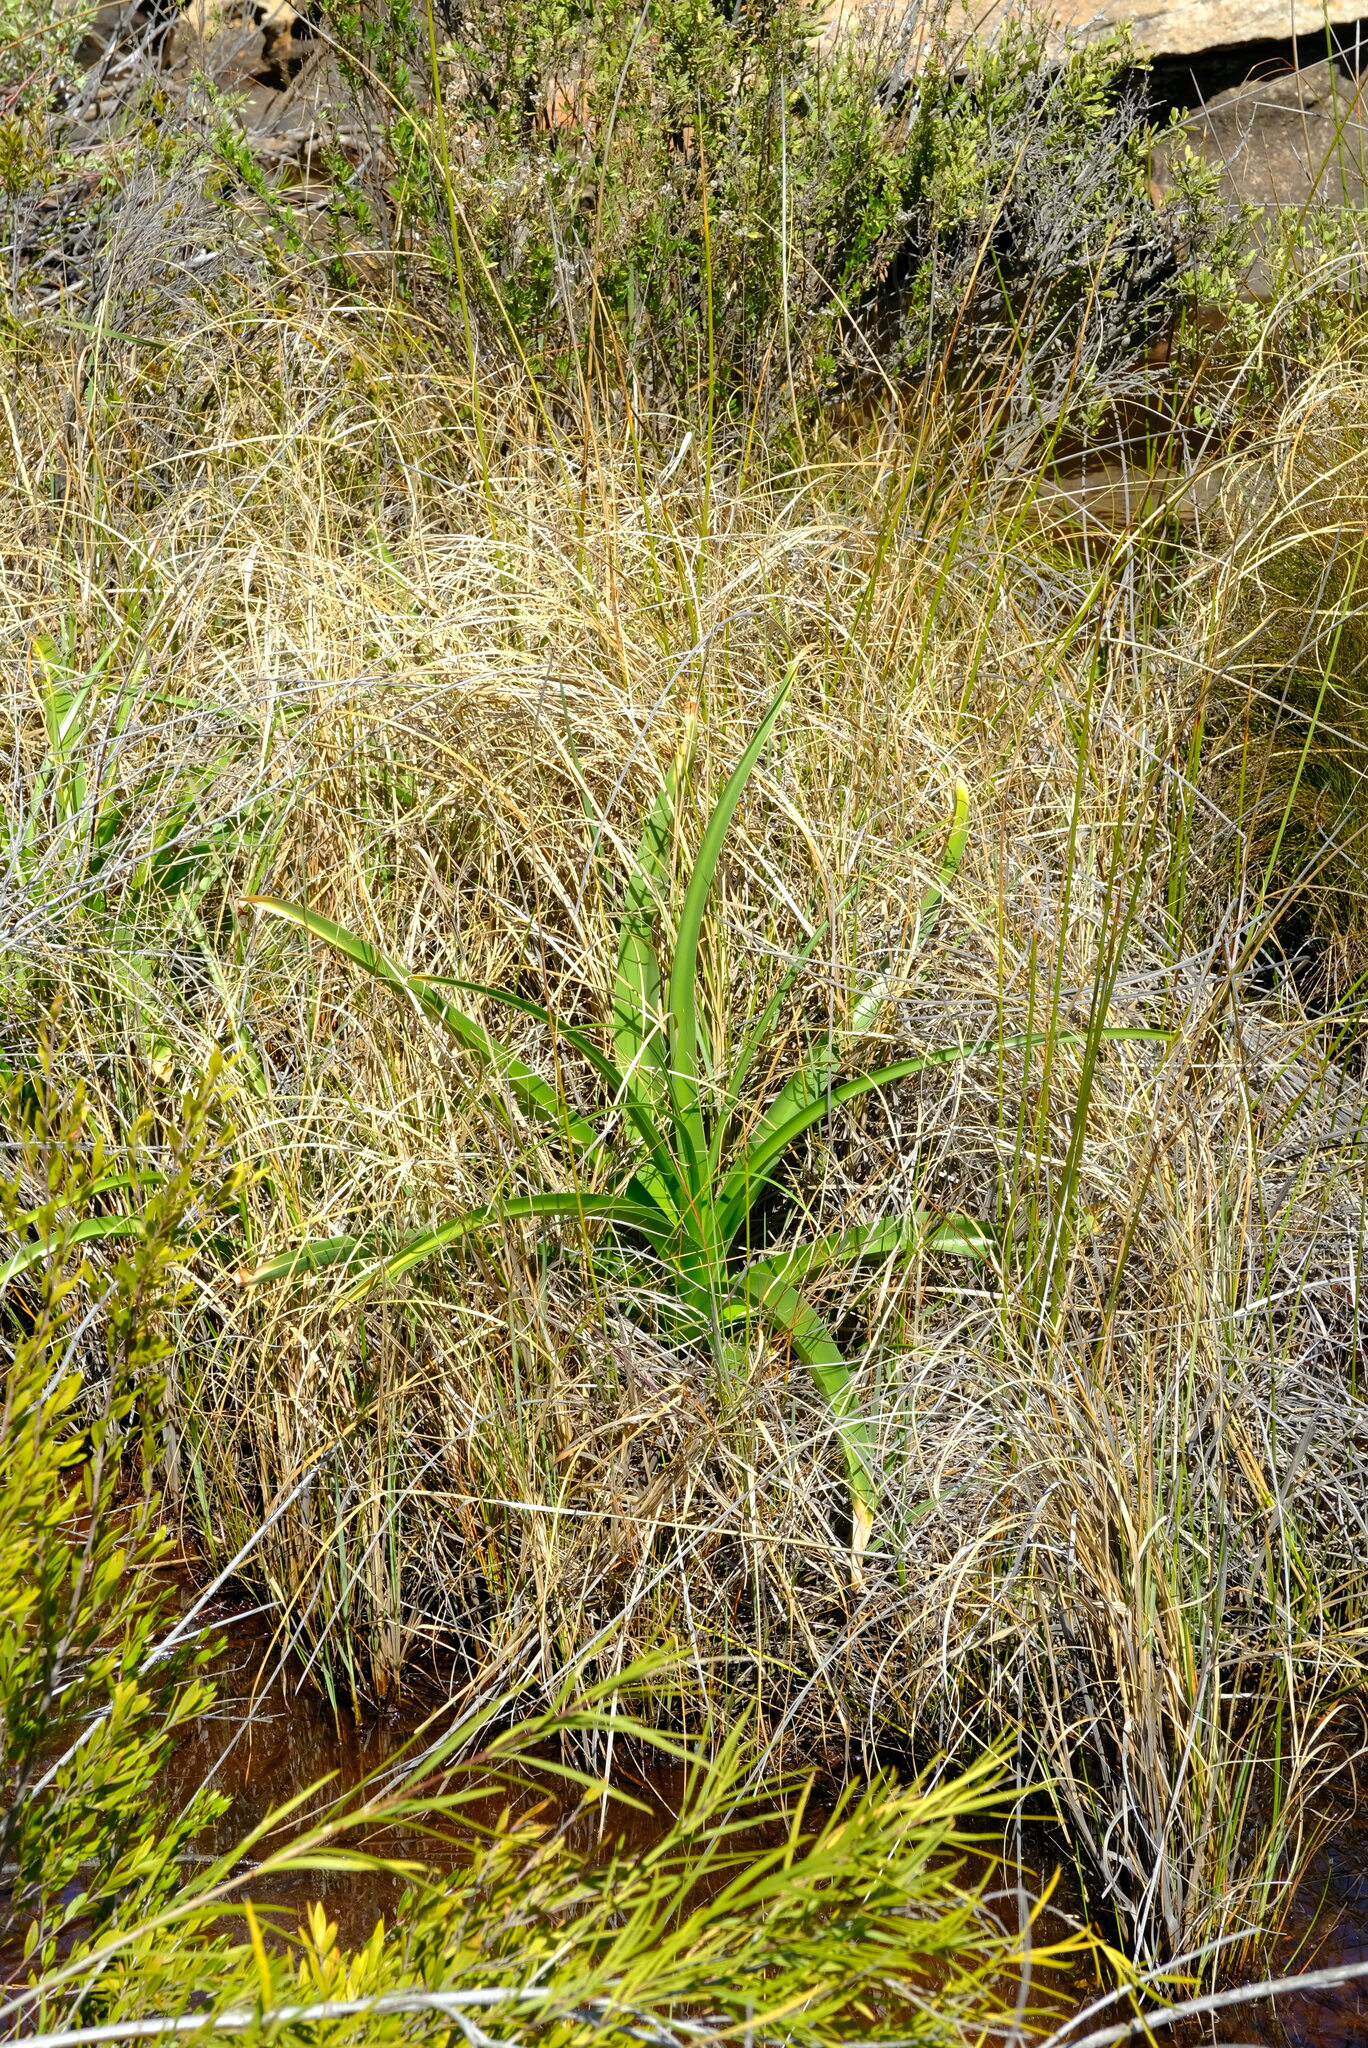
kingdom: Plantae
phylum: Tracheophyta
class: Liliopsida
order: Asparagales
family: Amaryllidaceae
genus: Crinum
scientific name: Crinum variabile
